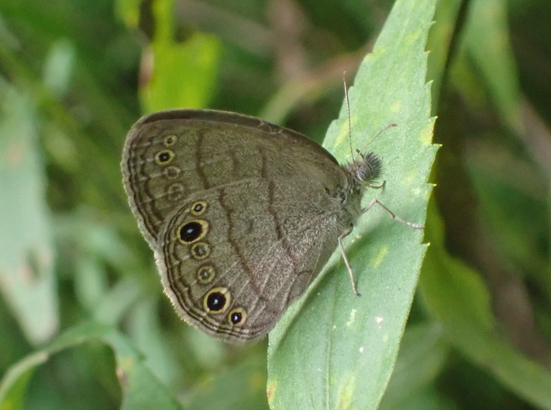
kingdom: Animalia
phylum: Arthropoda
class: Insecta
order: Lepidoptera
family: Nymphalidae
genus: Hermeuptychia
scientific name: Hermeuptychia hermes
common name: Hermes satyr
